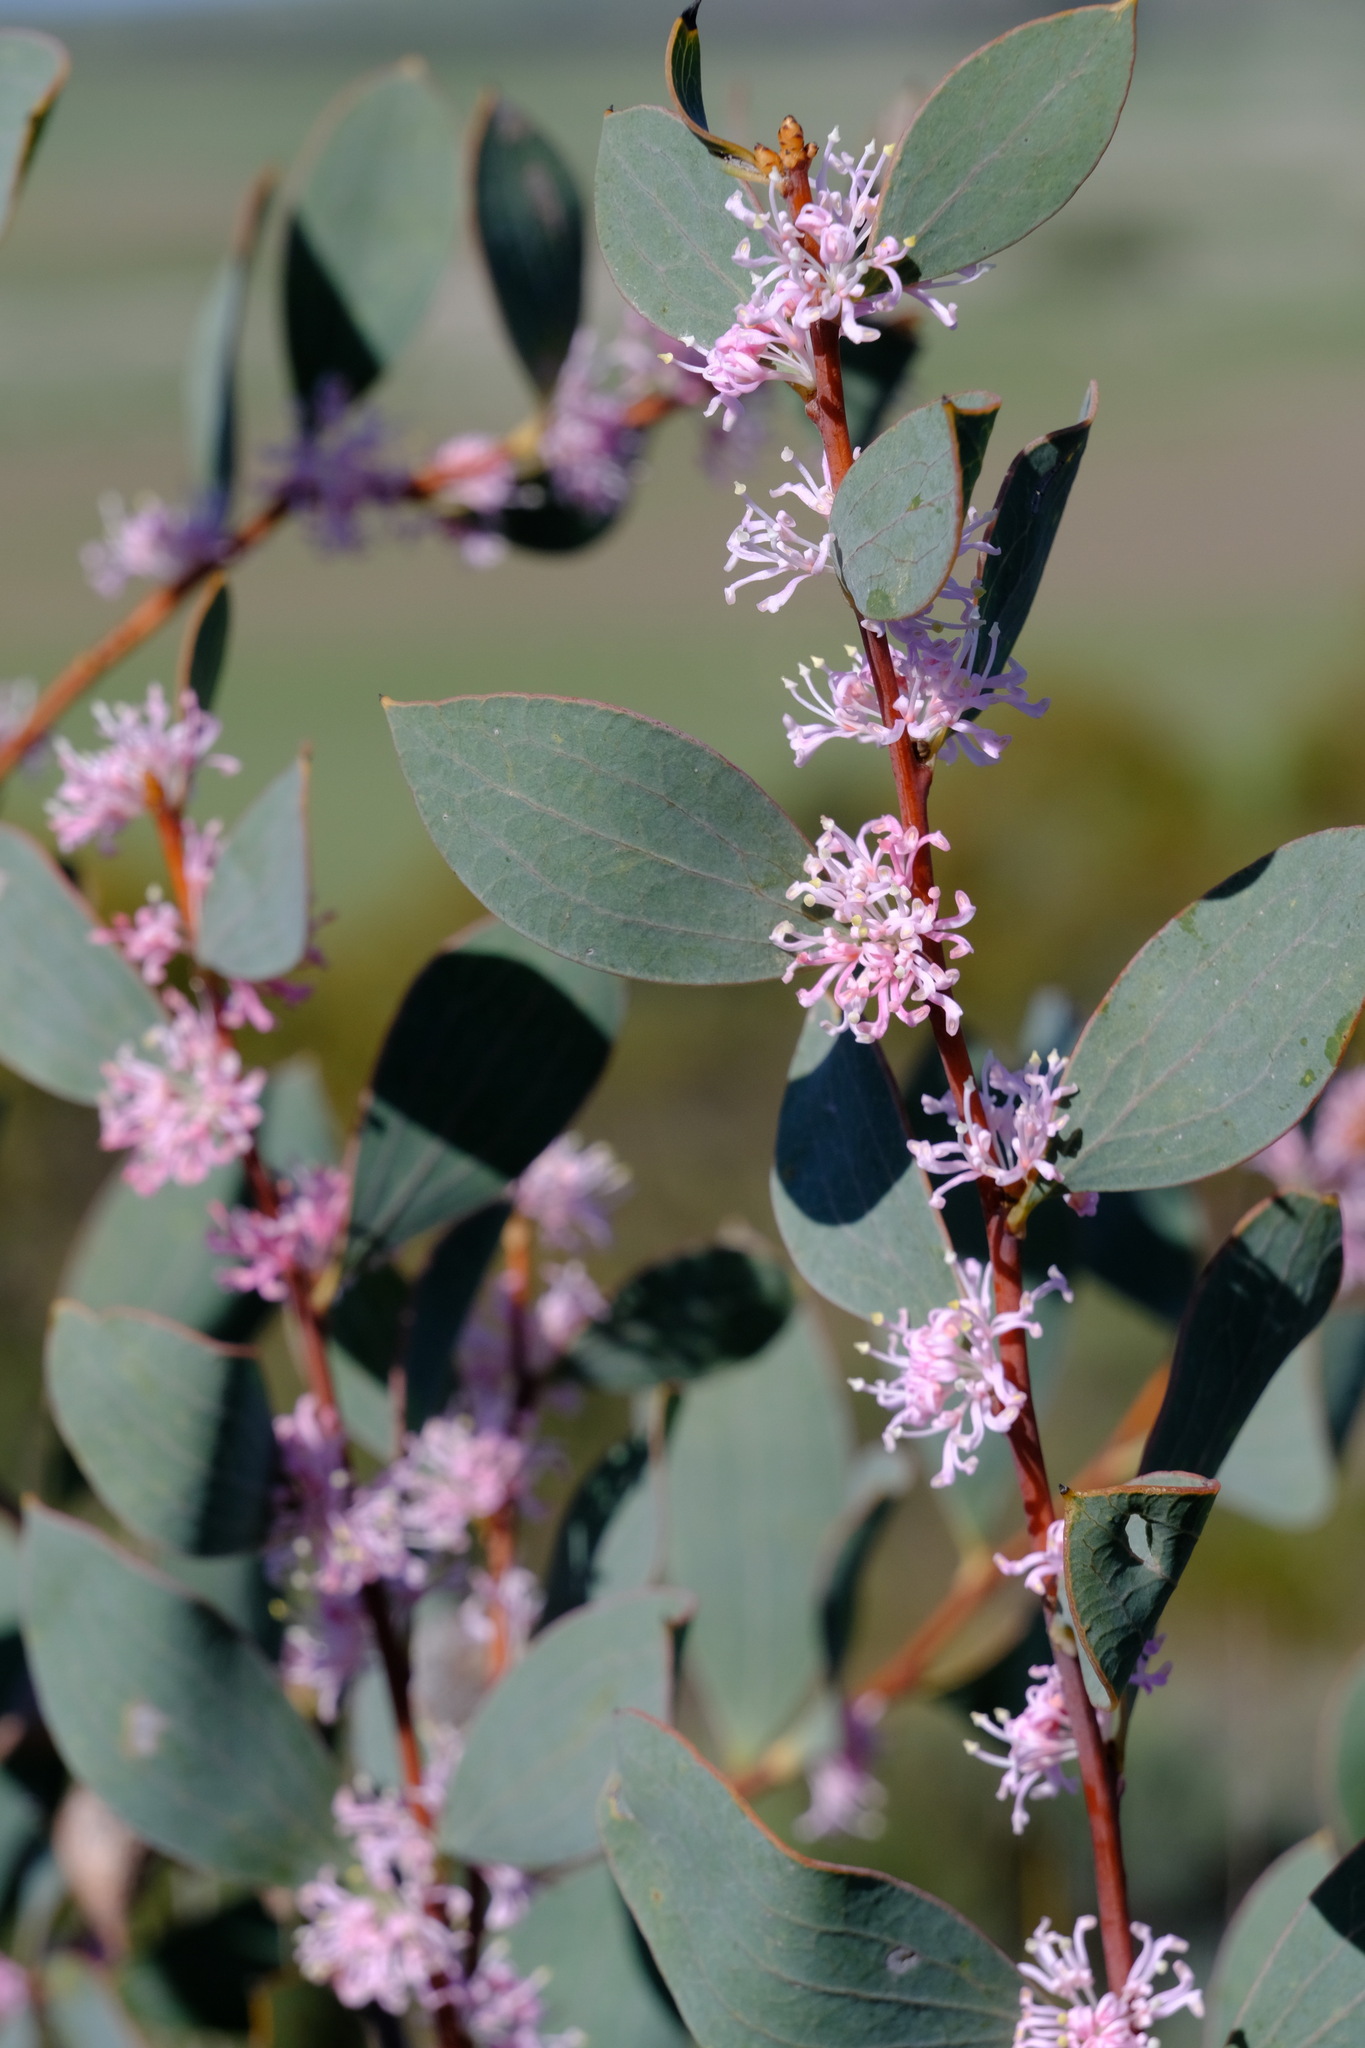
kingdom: Plantae
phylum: Tracheophyta
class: Magnoliopsida
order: Proteales
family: Proteaceae
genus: Hakea
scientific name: Hakea neurophylla
